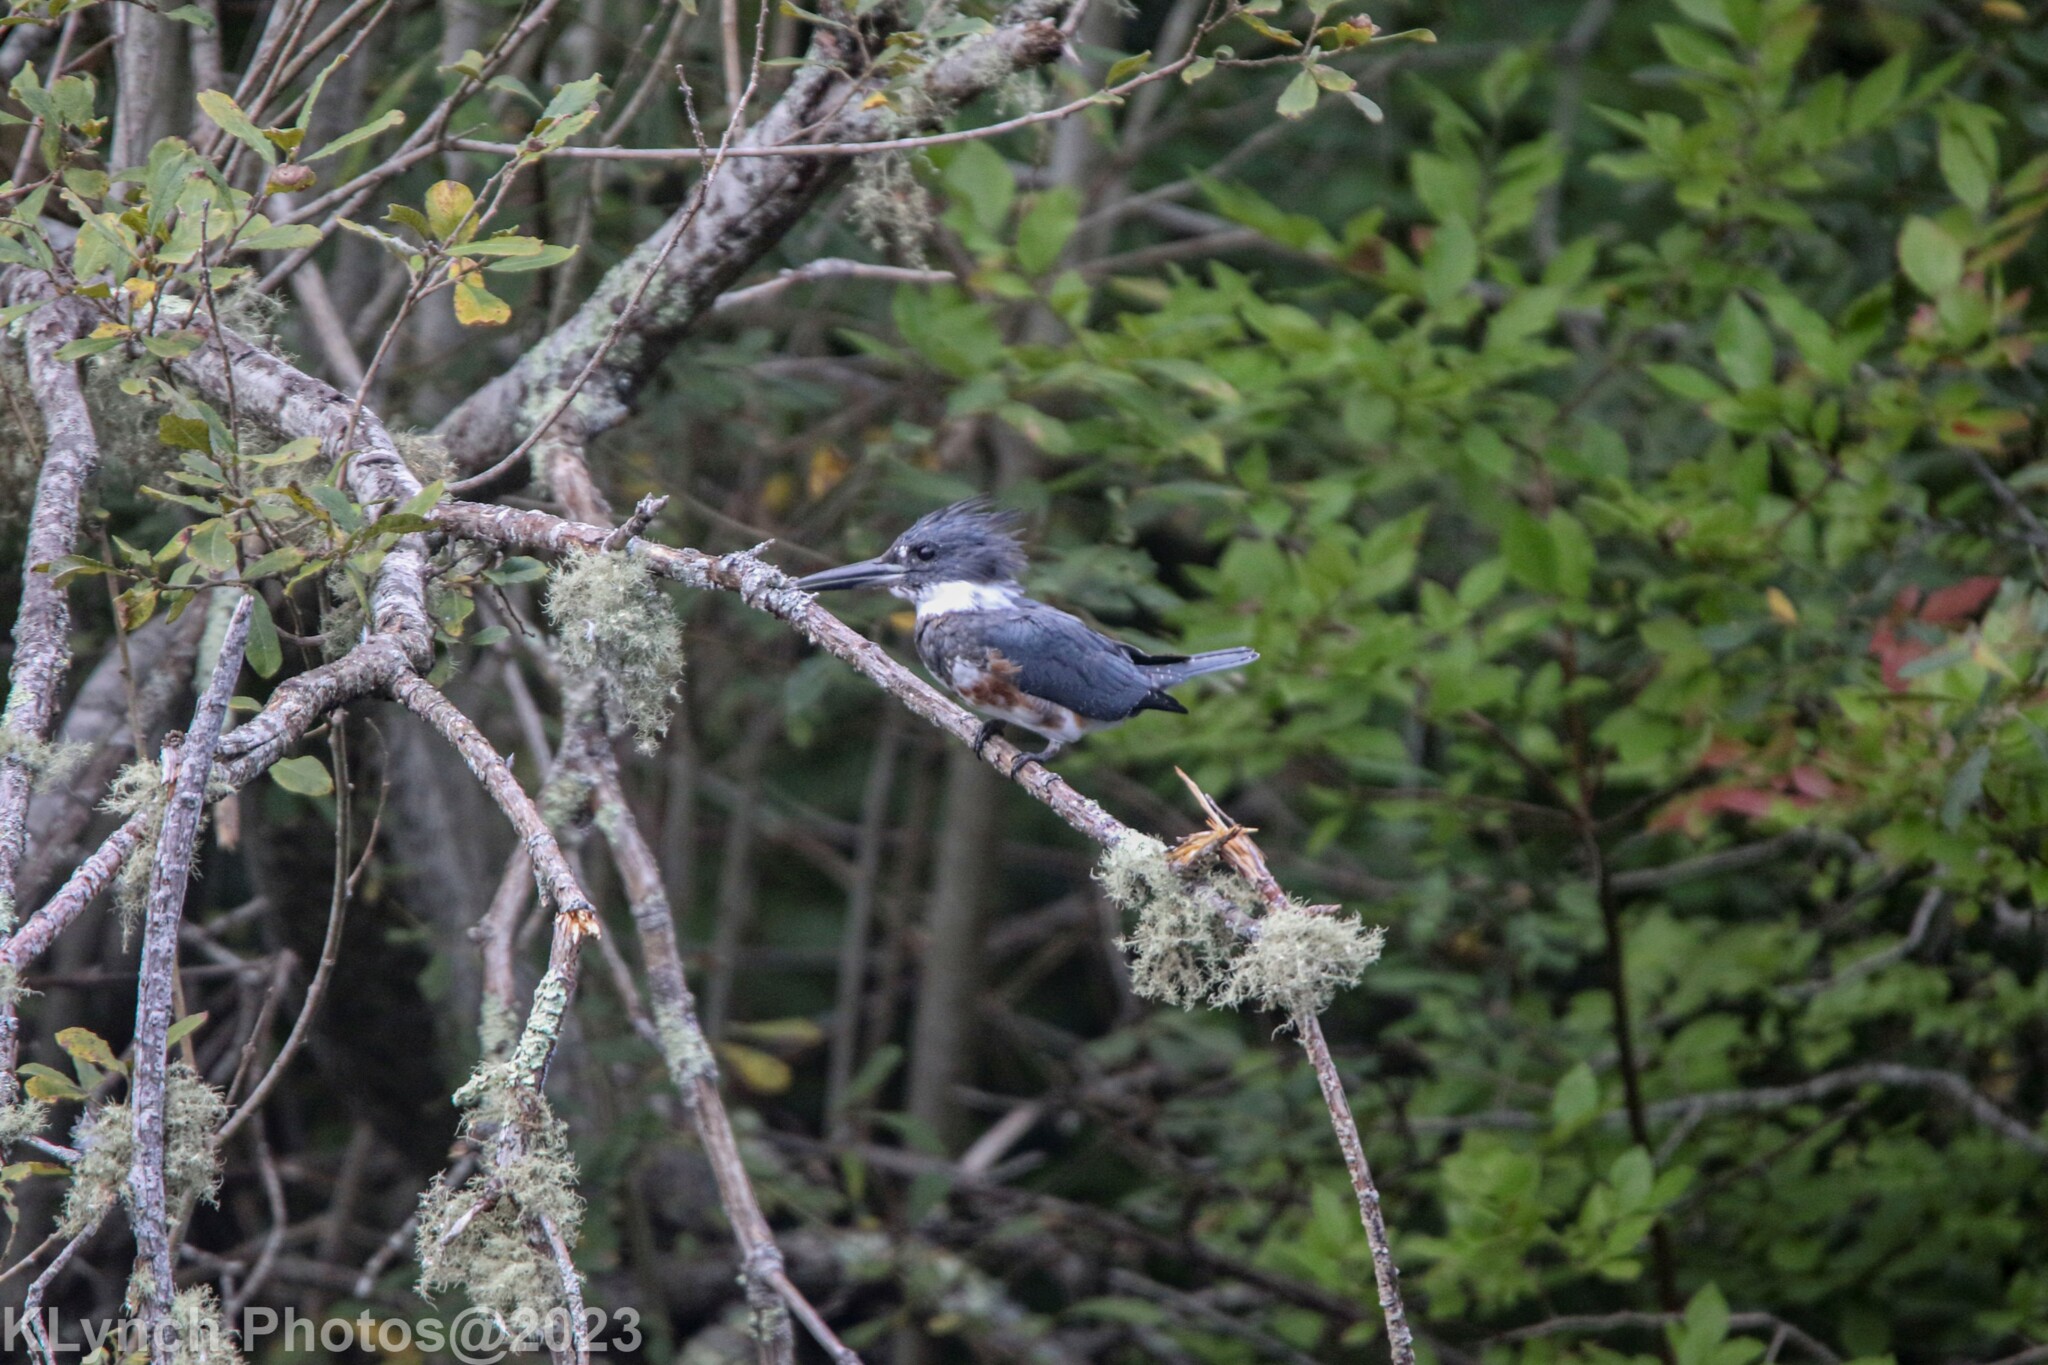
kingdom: Animalia
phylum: Chordata
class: Aves
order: Coraciiformes
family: Alcedinidae
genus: Megaceryle
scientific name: Megaceryle alcyon
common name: Belted kingfisher
